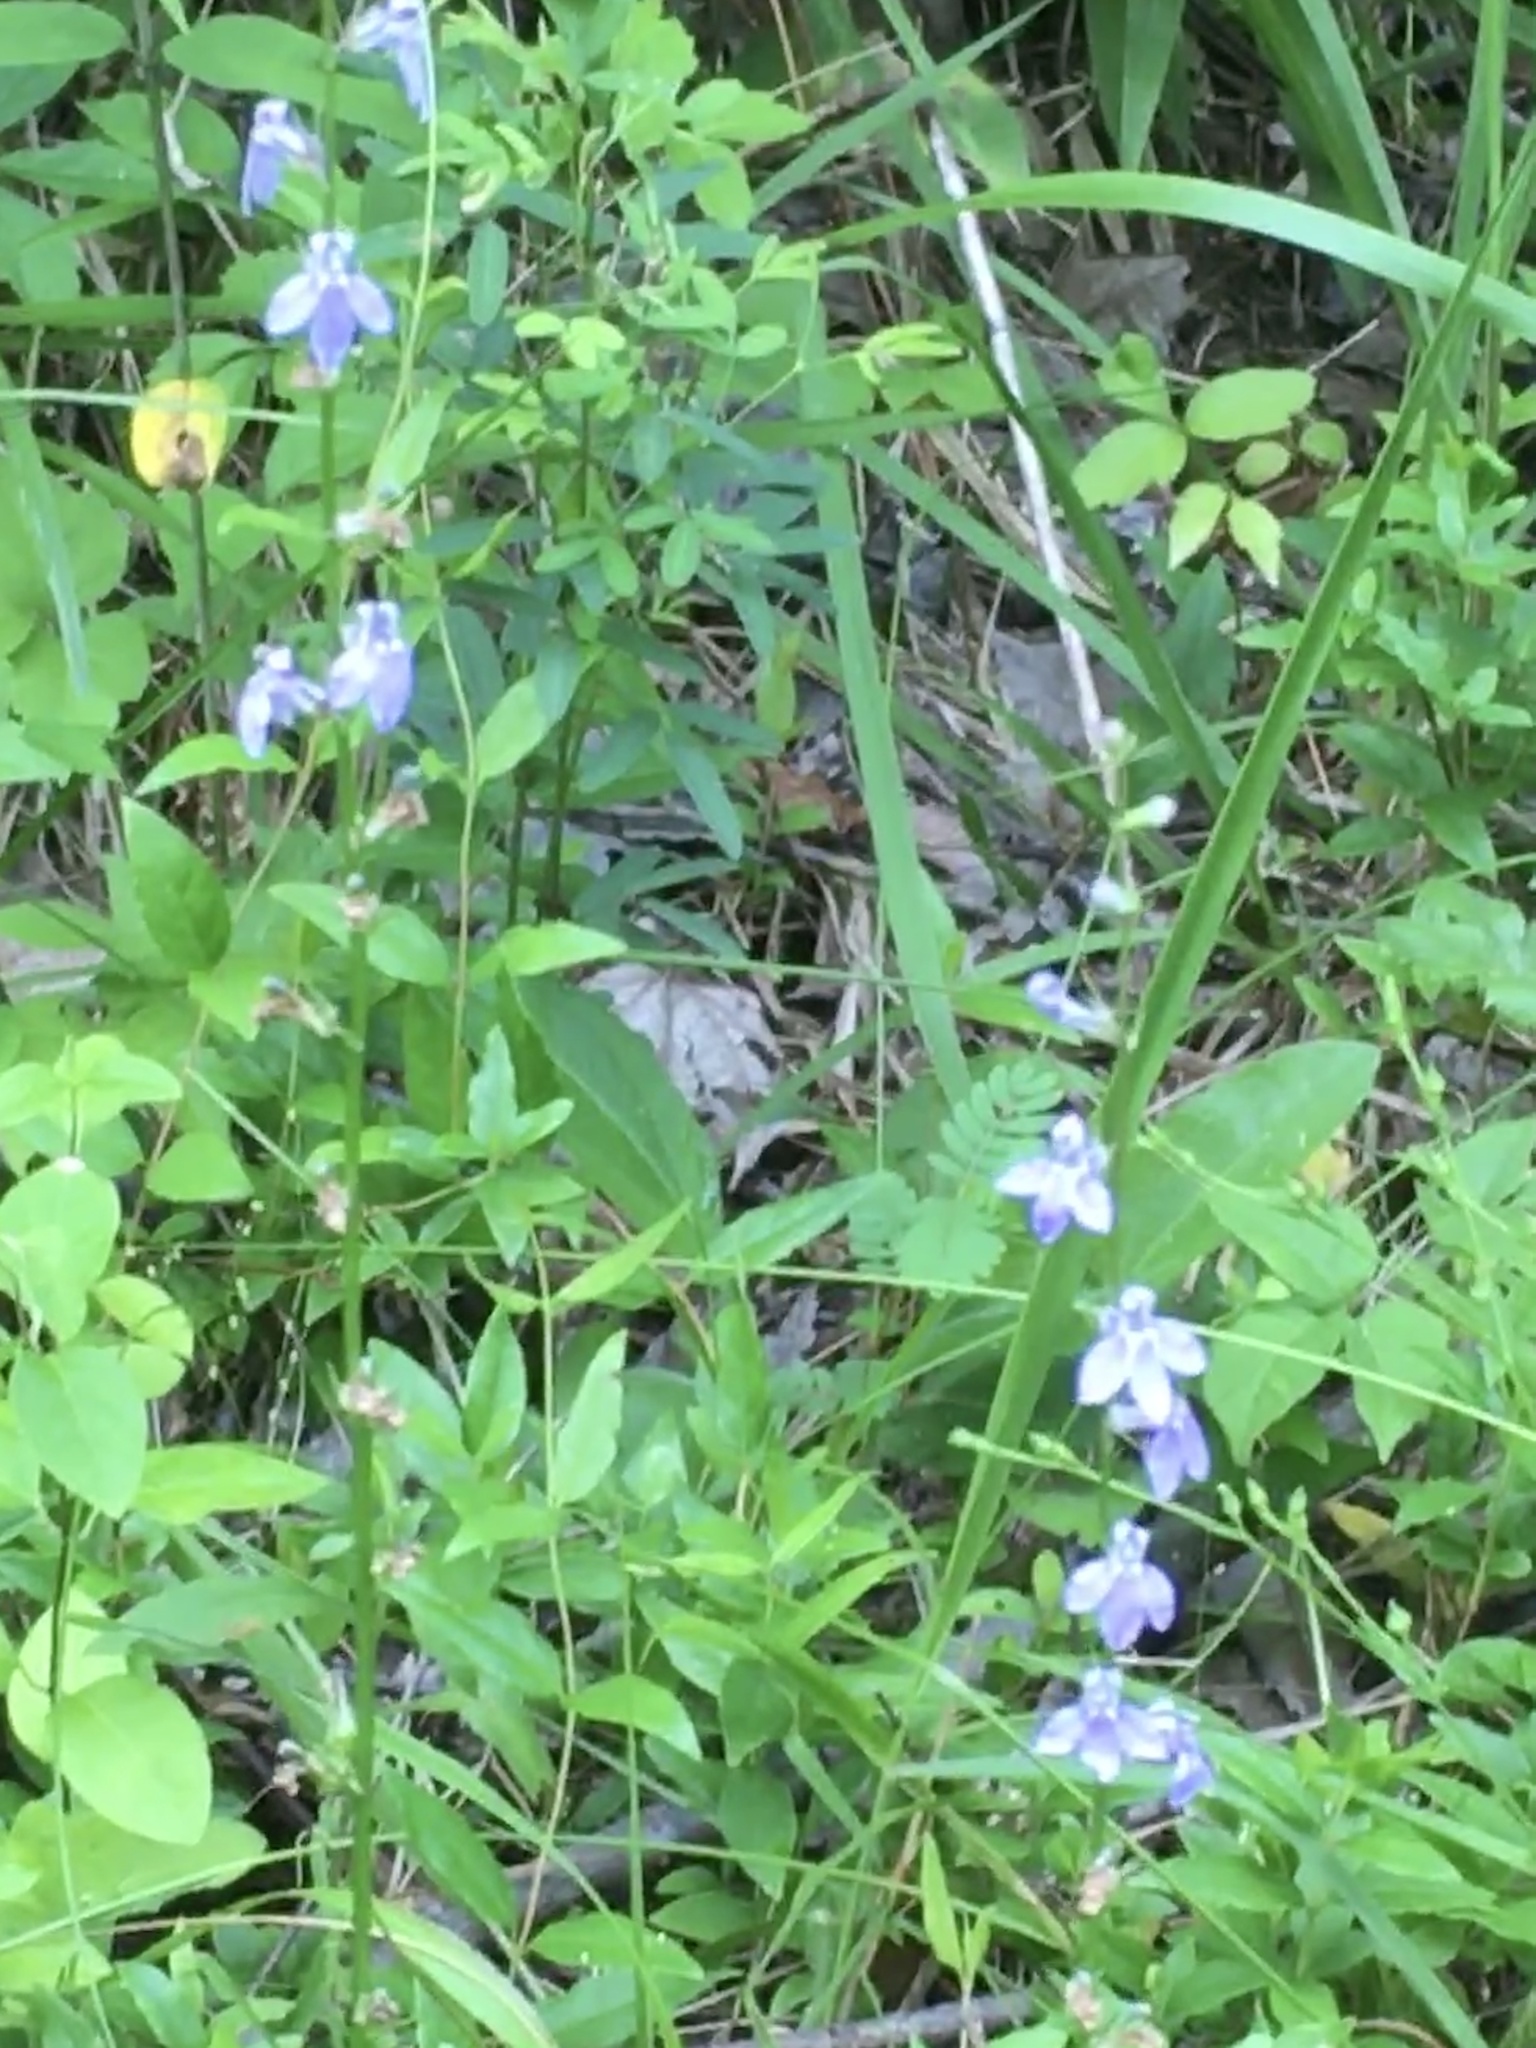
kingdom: Plantae
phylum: Tracheophyta
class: Magnoliopsida
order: Asterales
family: Campanulaceae
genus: Lobelia
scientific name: Lobelia spicata
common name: Pale-spike lobelia
